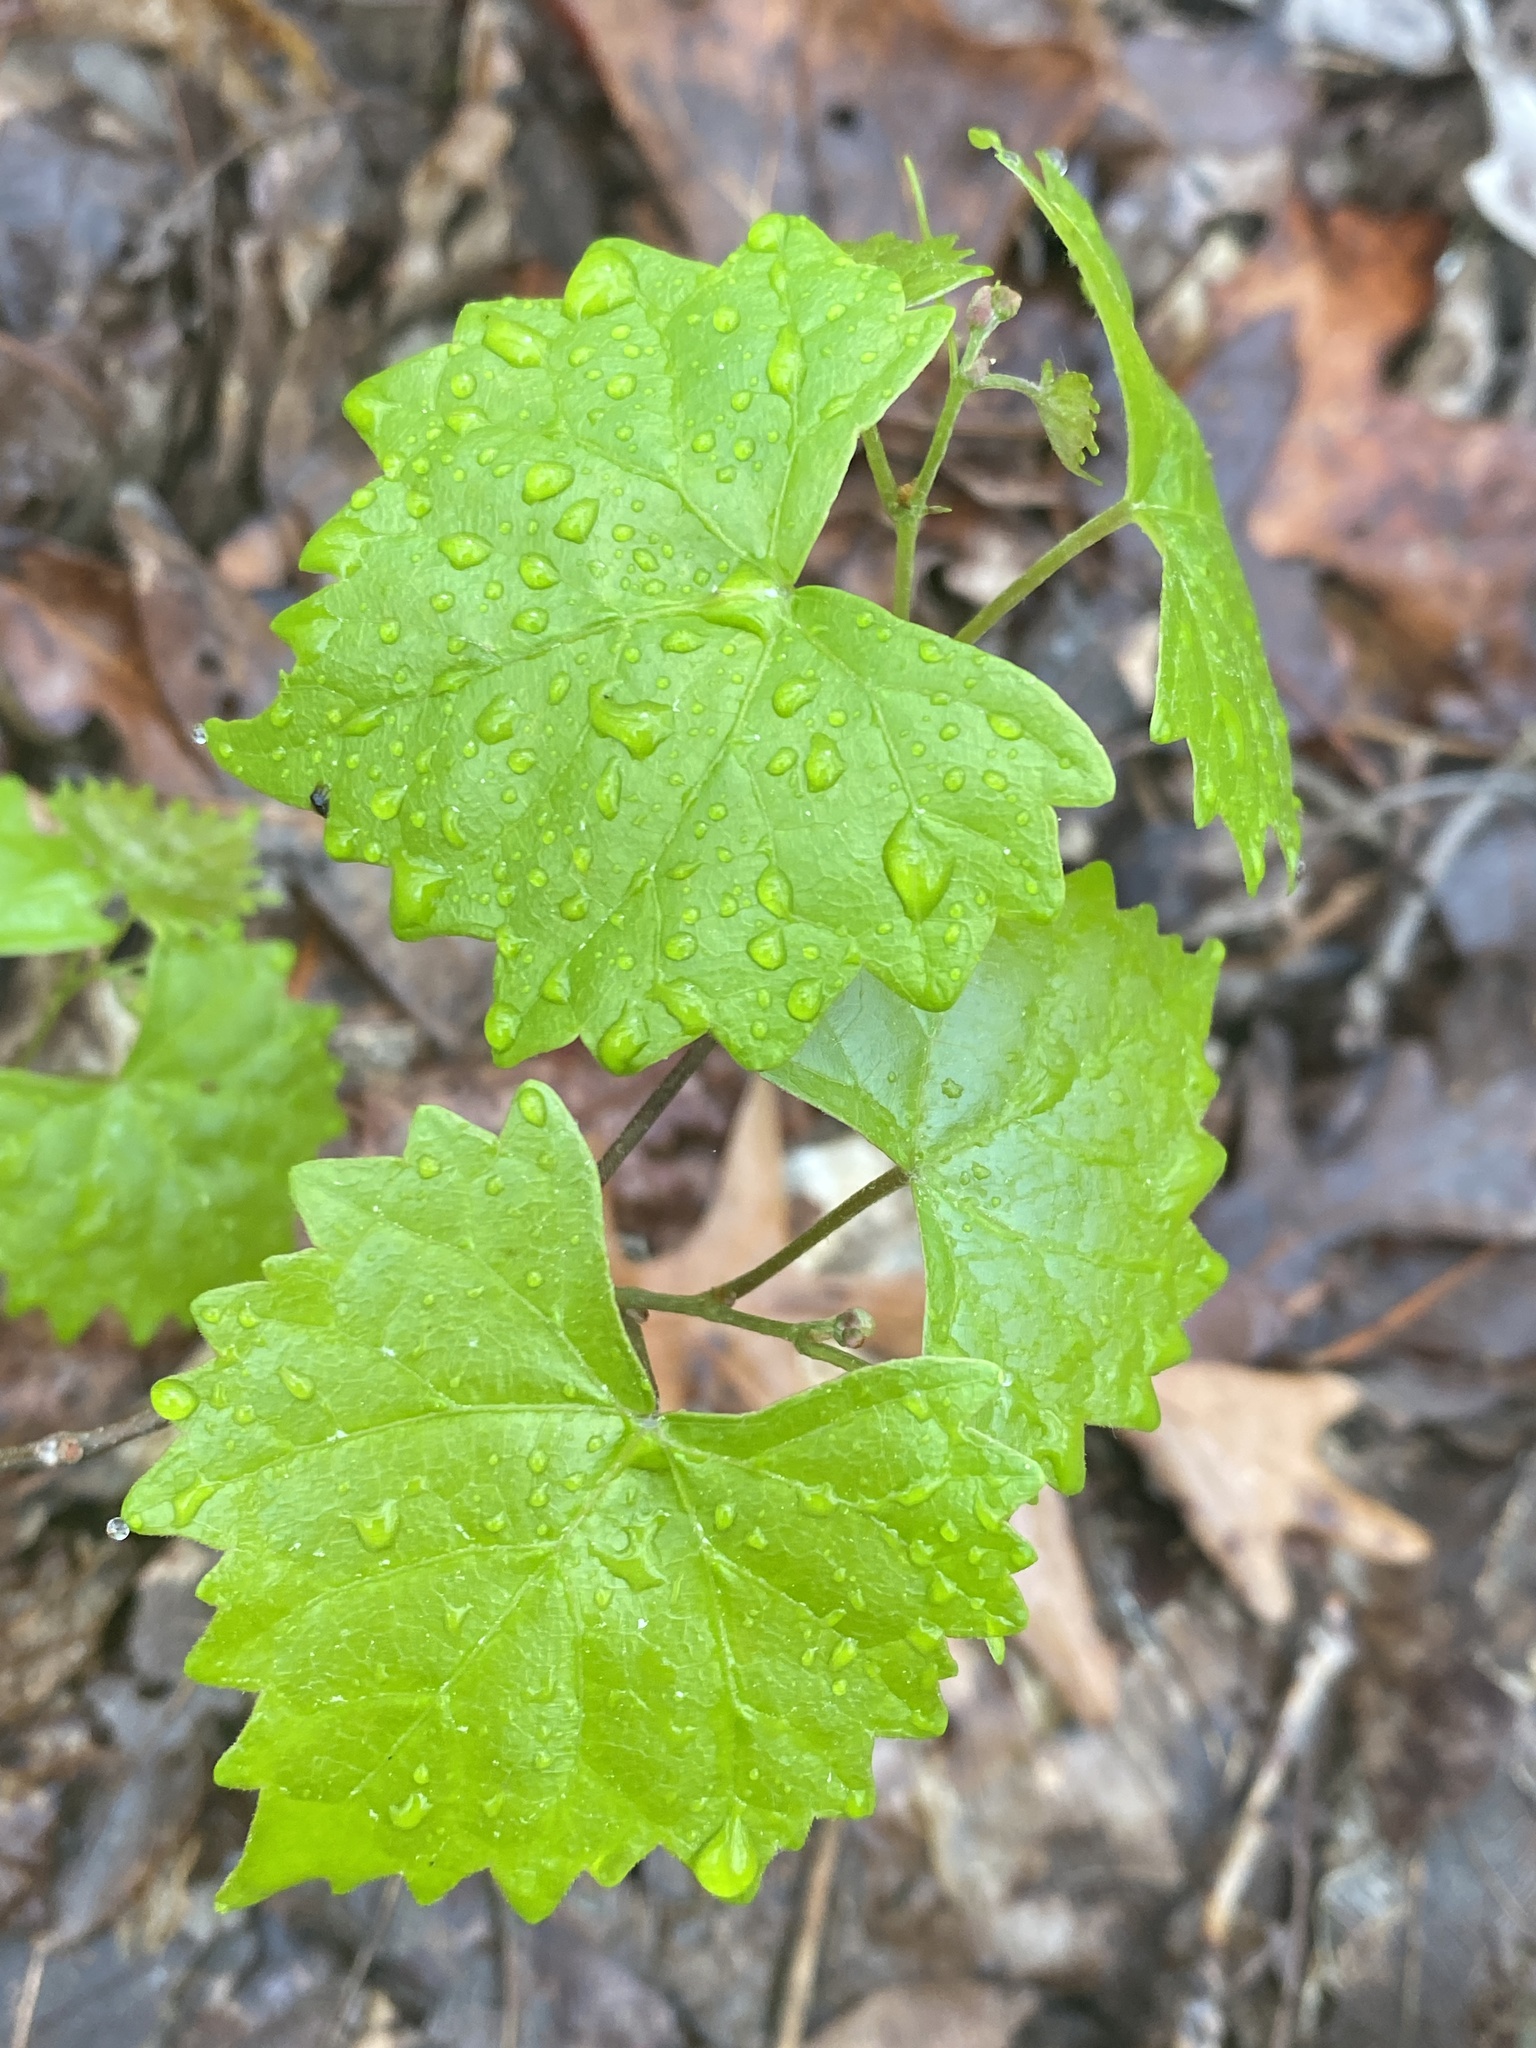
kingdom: Plantae
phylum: Tracheophyta
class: Magnoliopsida
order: Vitales
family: Vitaceae
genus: Vitis
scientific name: Vitis rotundifolia
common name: Muscadine grape
